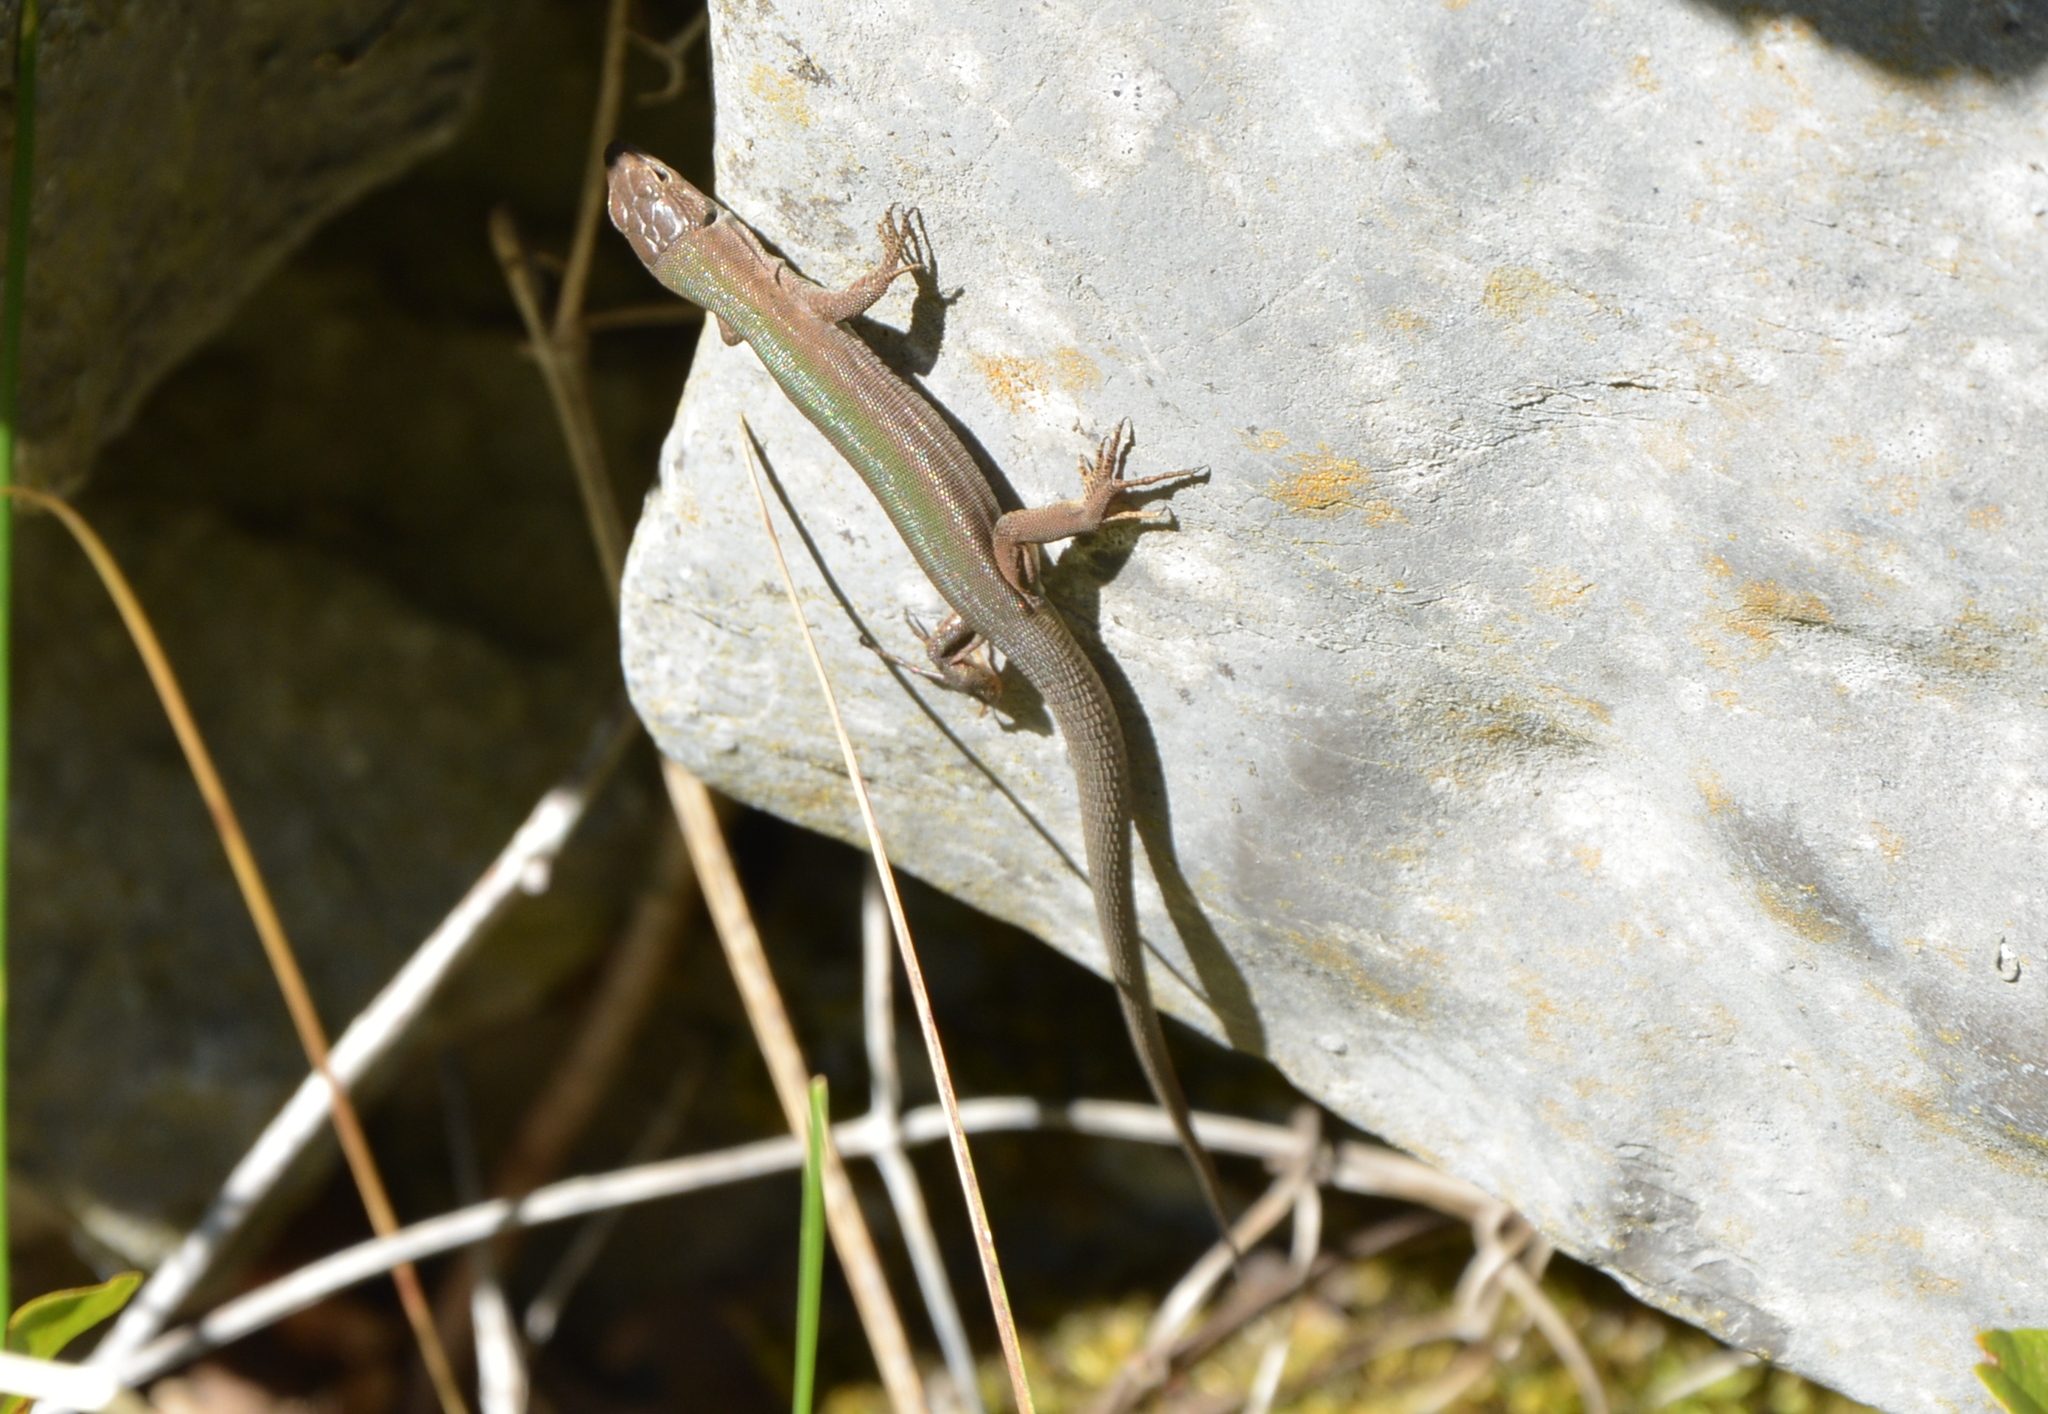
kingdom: Animalia
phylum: Chordata
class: Squamata
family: Lacertidae
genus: Podarcis
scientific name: Podarcis melisellensis
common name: Dalmatian wall lizard
